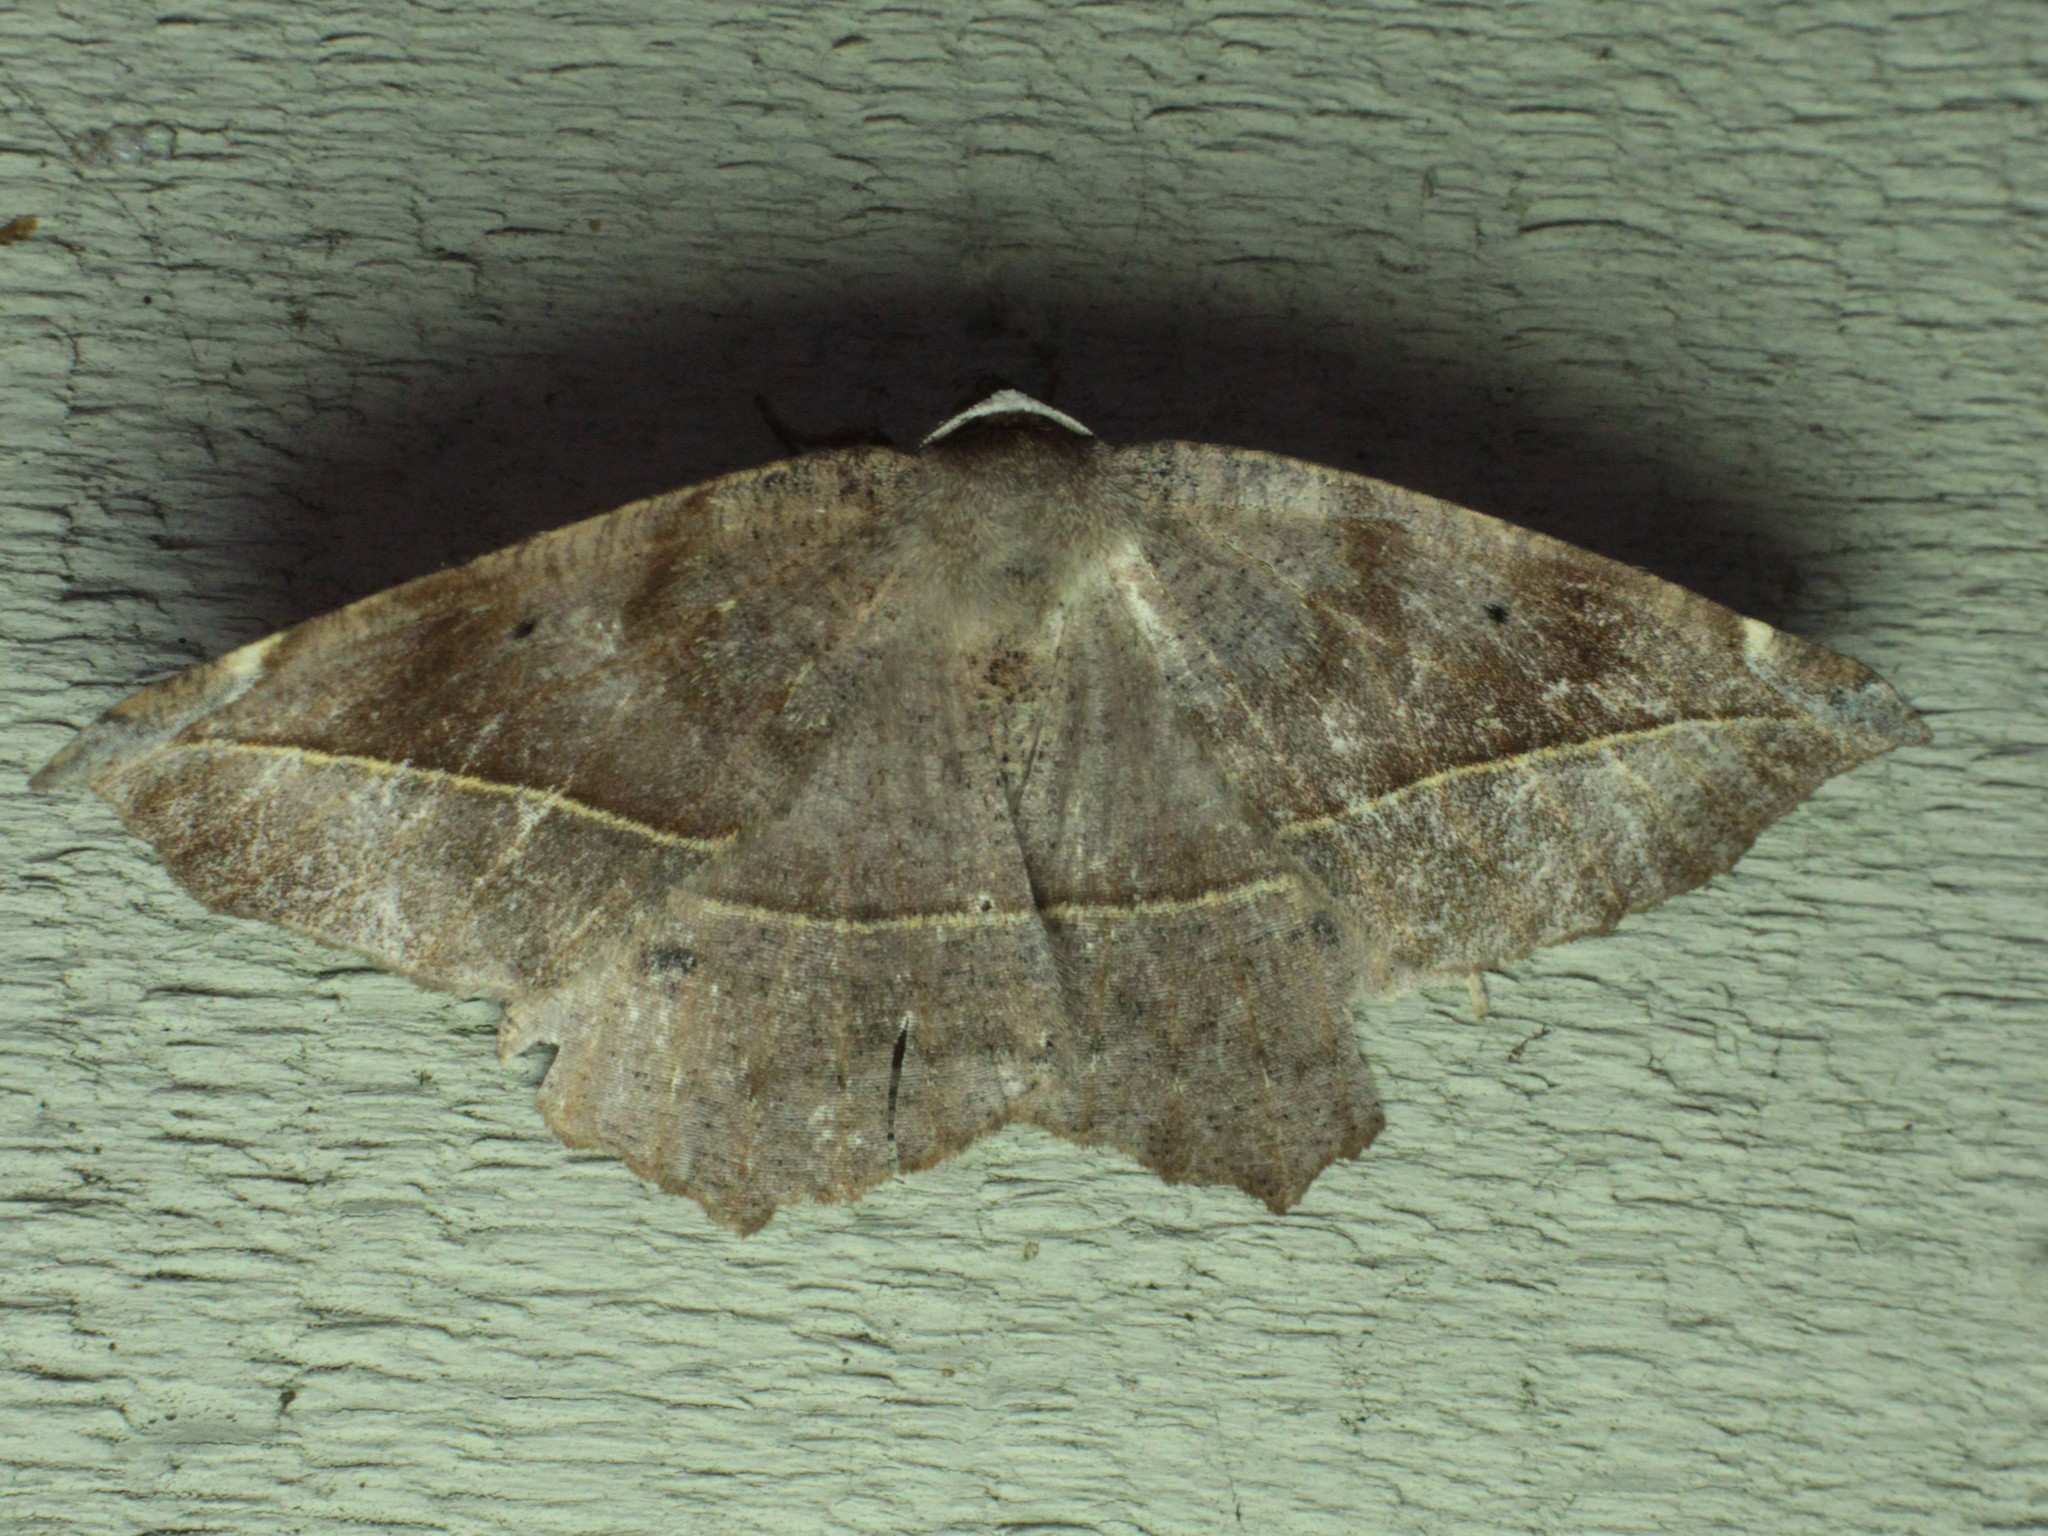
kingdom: Animalia
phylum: Arthropoda
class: Insecta
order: Lepidoptera
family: Geometridae
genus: Eutrapela
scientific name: Eutrapela clemataria
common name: Curved-toothed geometer
